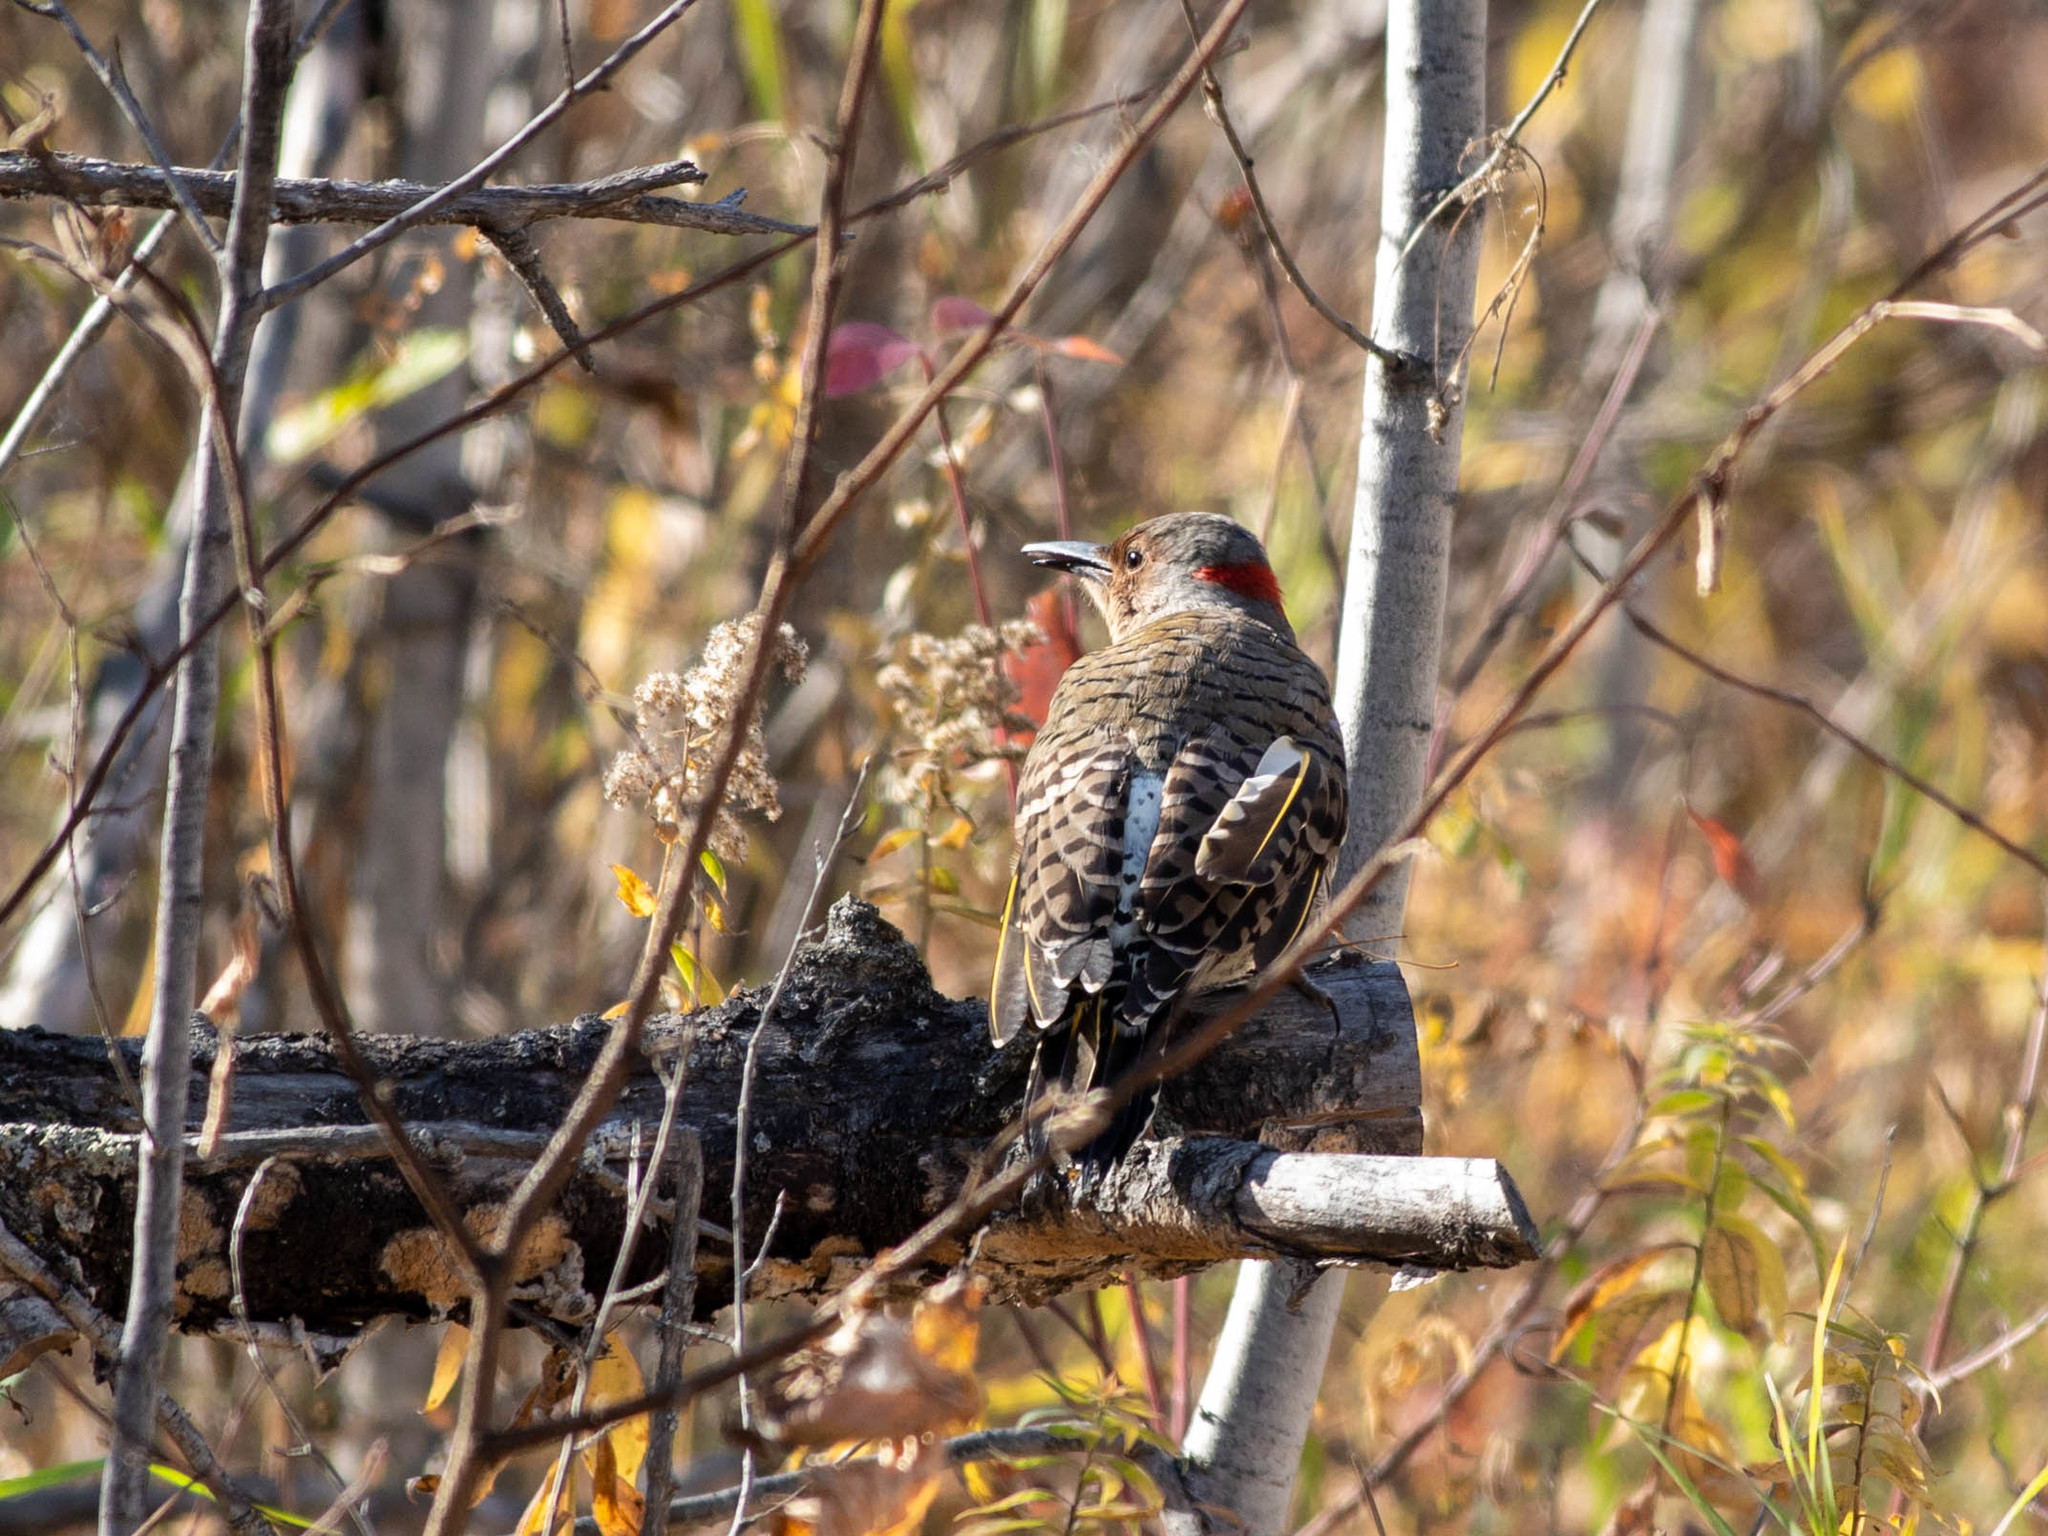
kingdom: Animalia
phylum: Chordata
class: Aves
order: Piciformes
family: Picidae
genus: Colaptes
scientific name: Colaptes auratus
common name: Northern flicker
